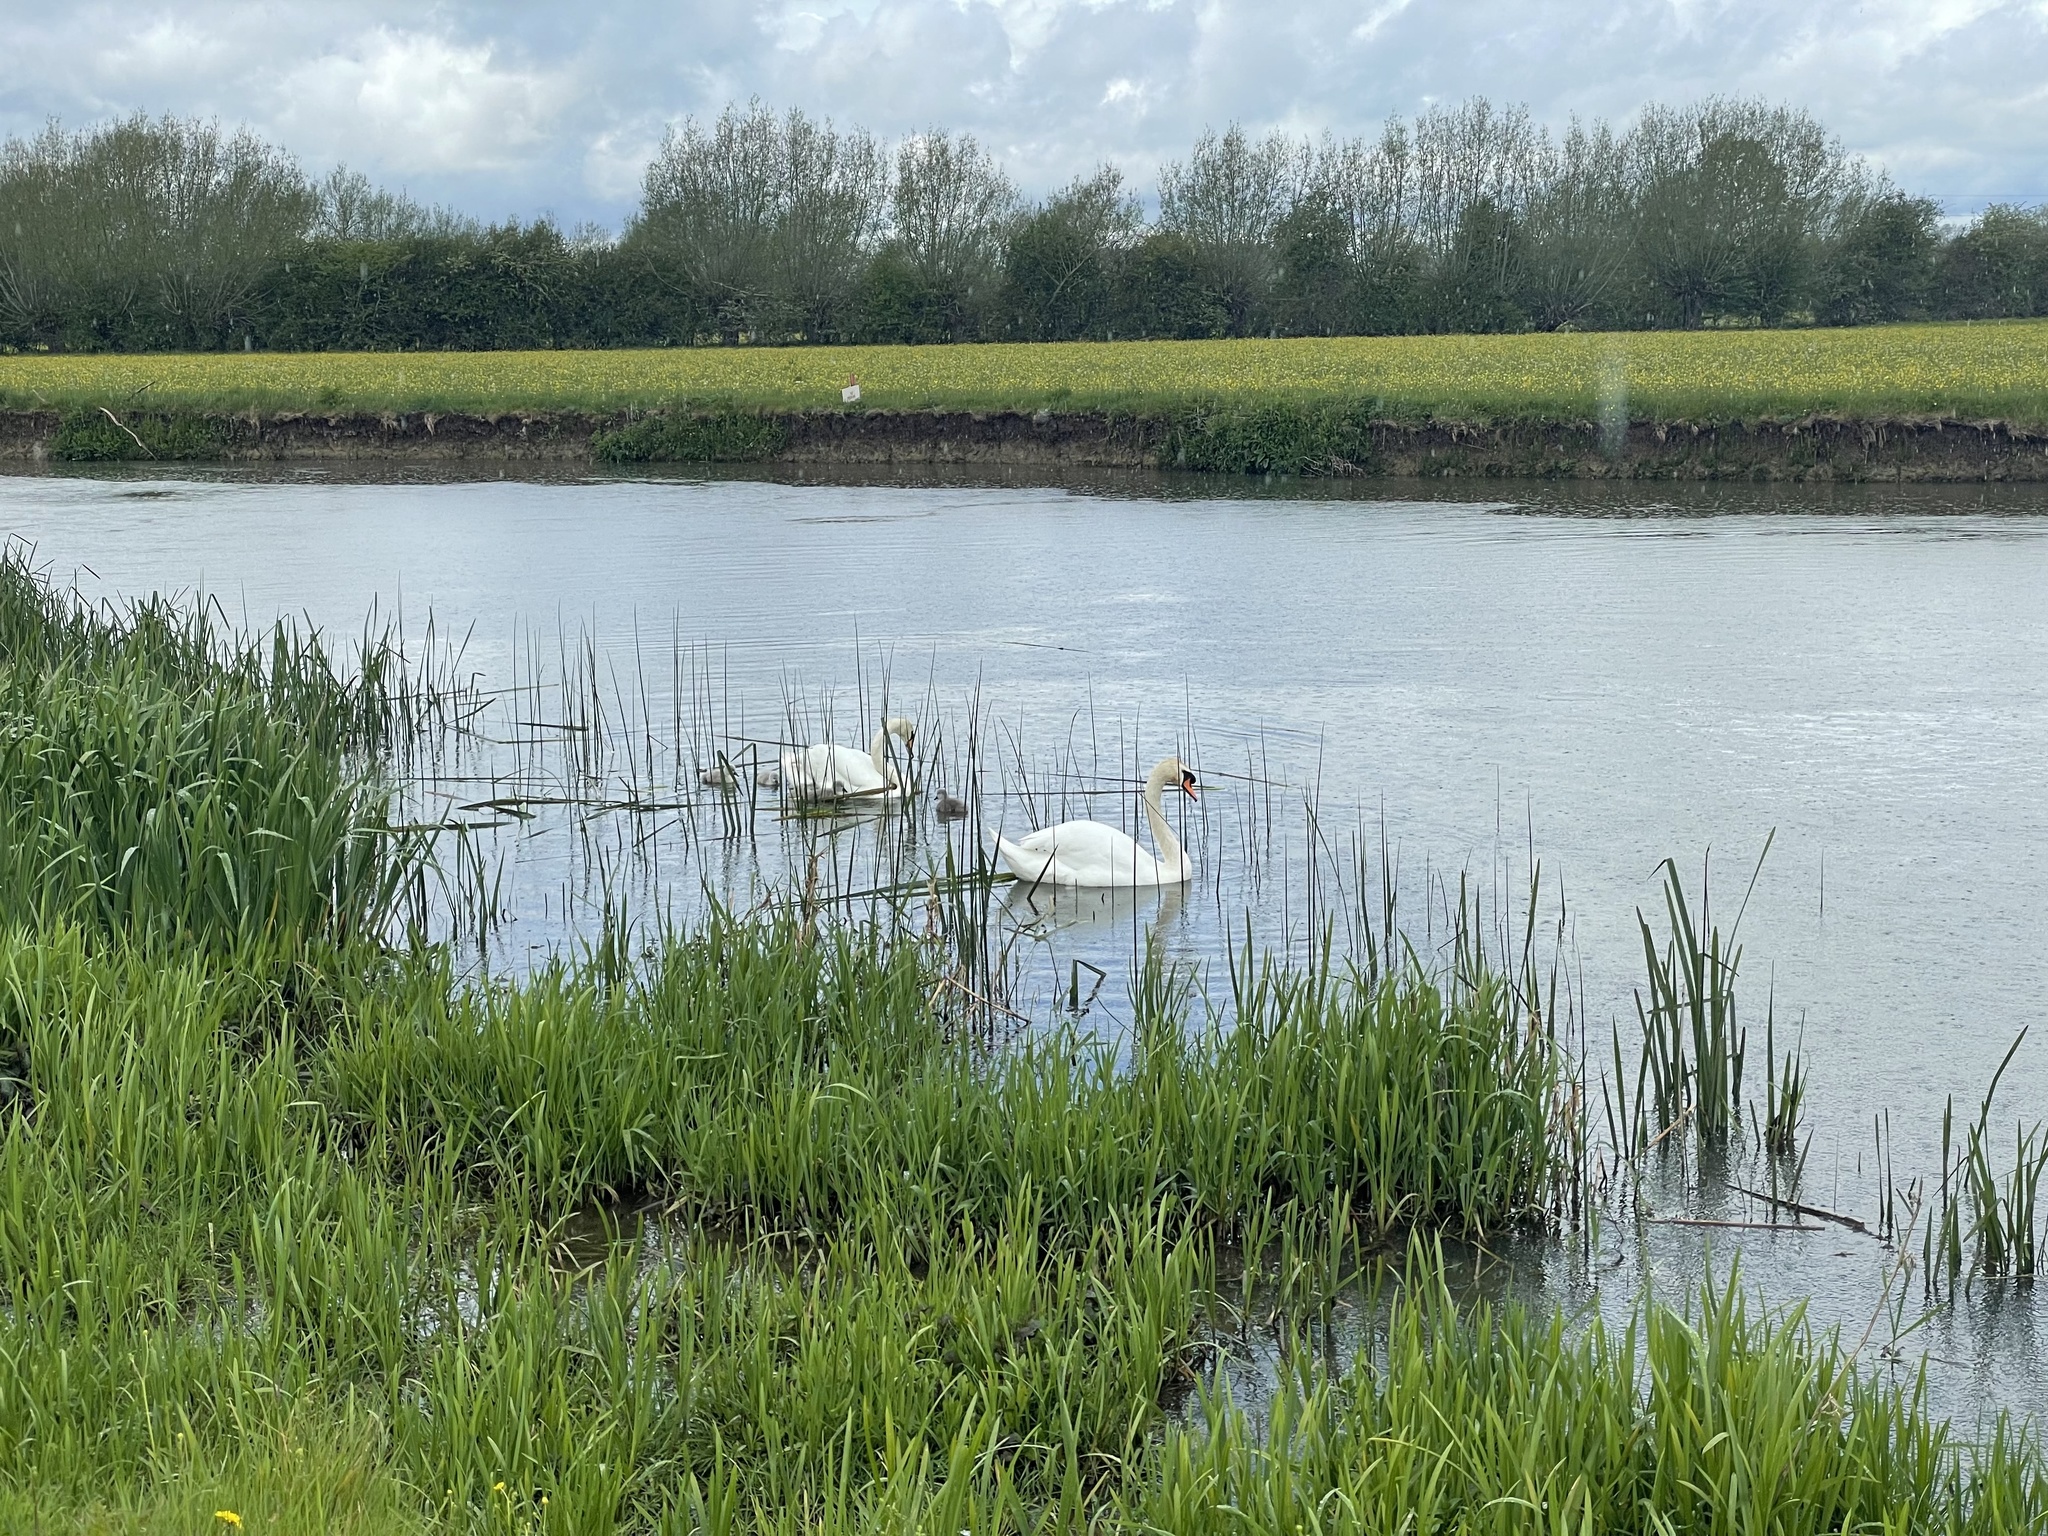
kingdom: Animalia
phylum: Chordata
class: Aves
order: Anseriformes
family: Anatidae
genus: Cygnus
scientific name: Cygnus olor
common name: Mute swan
